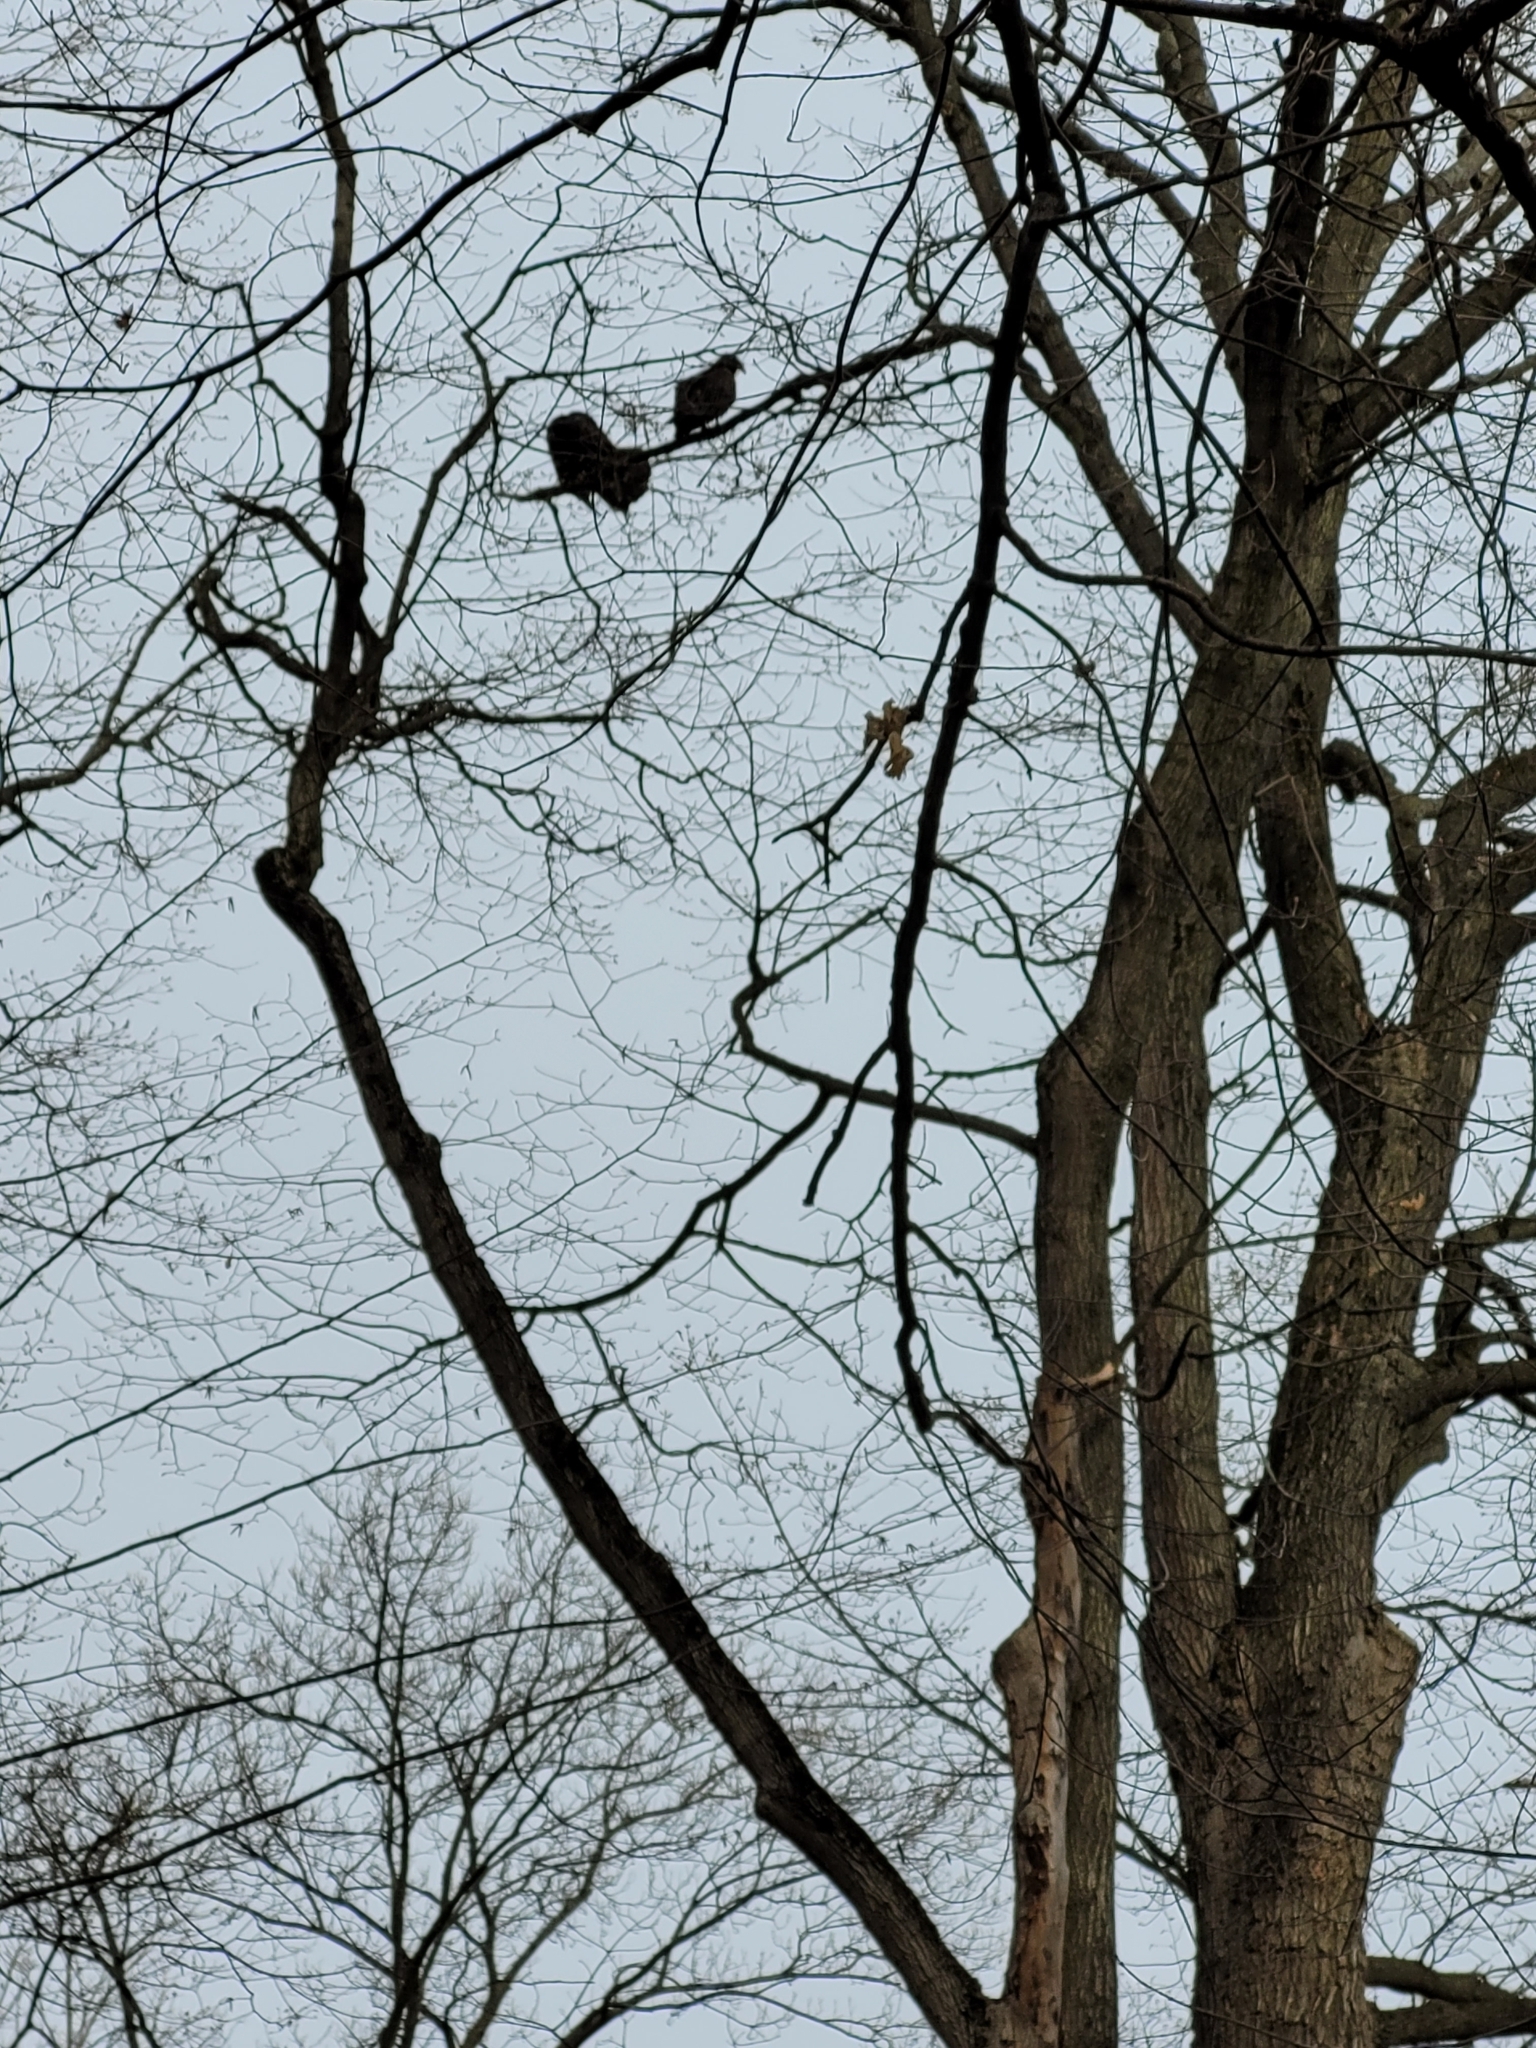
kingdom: Animalia
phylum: Chordata
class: Aves
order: Accipitriformes
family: Cathartidae
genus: Cathartes
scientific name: Cathartes aura
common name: Turkey vulture
